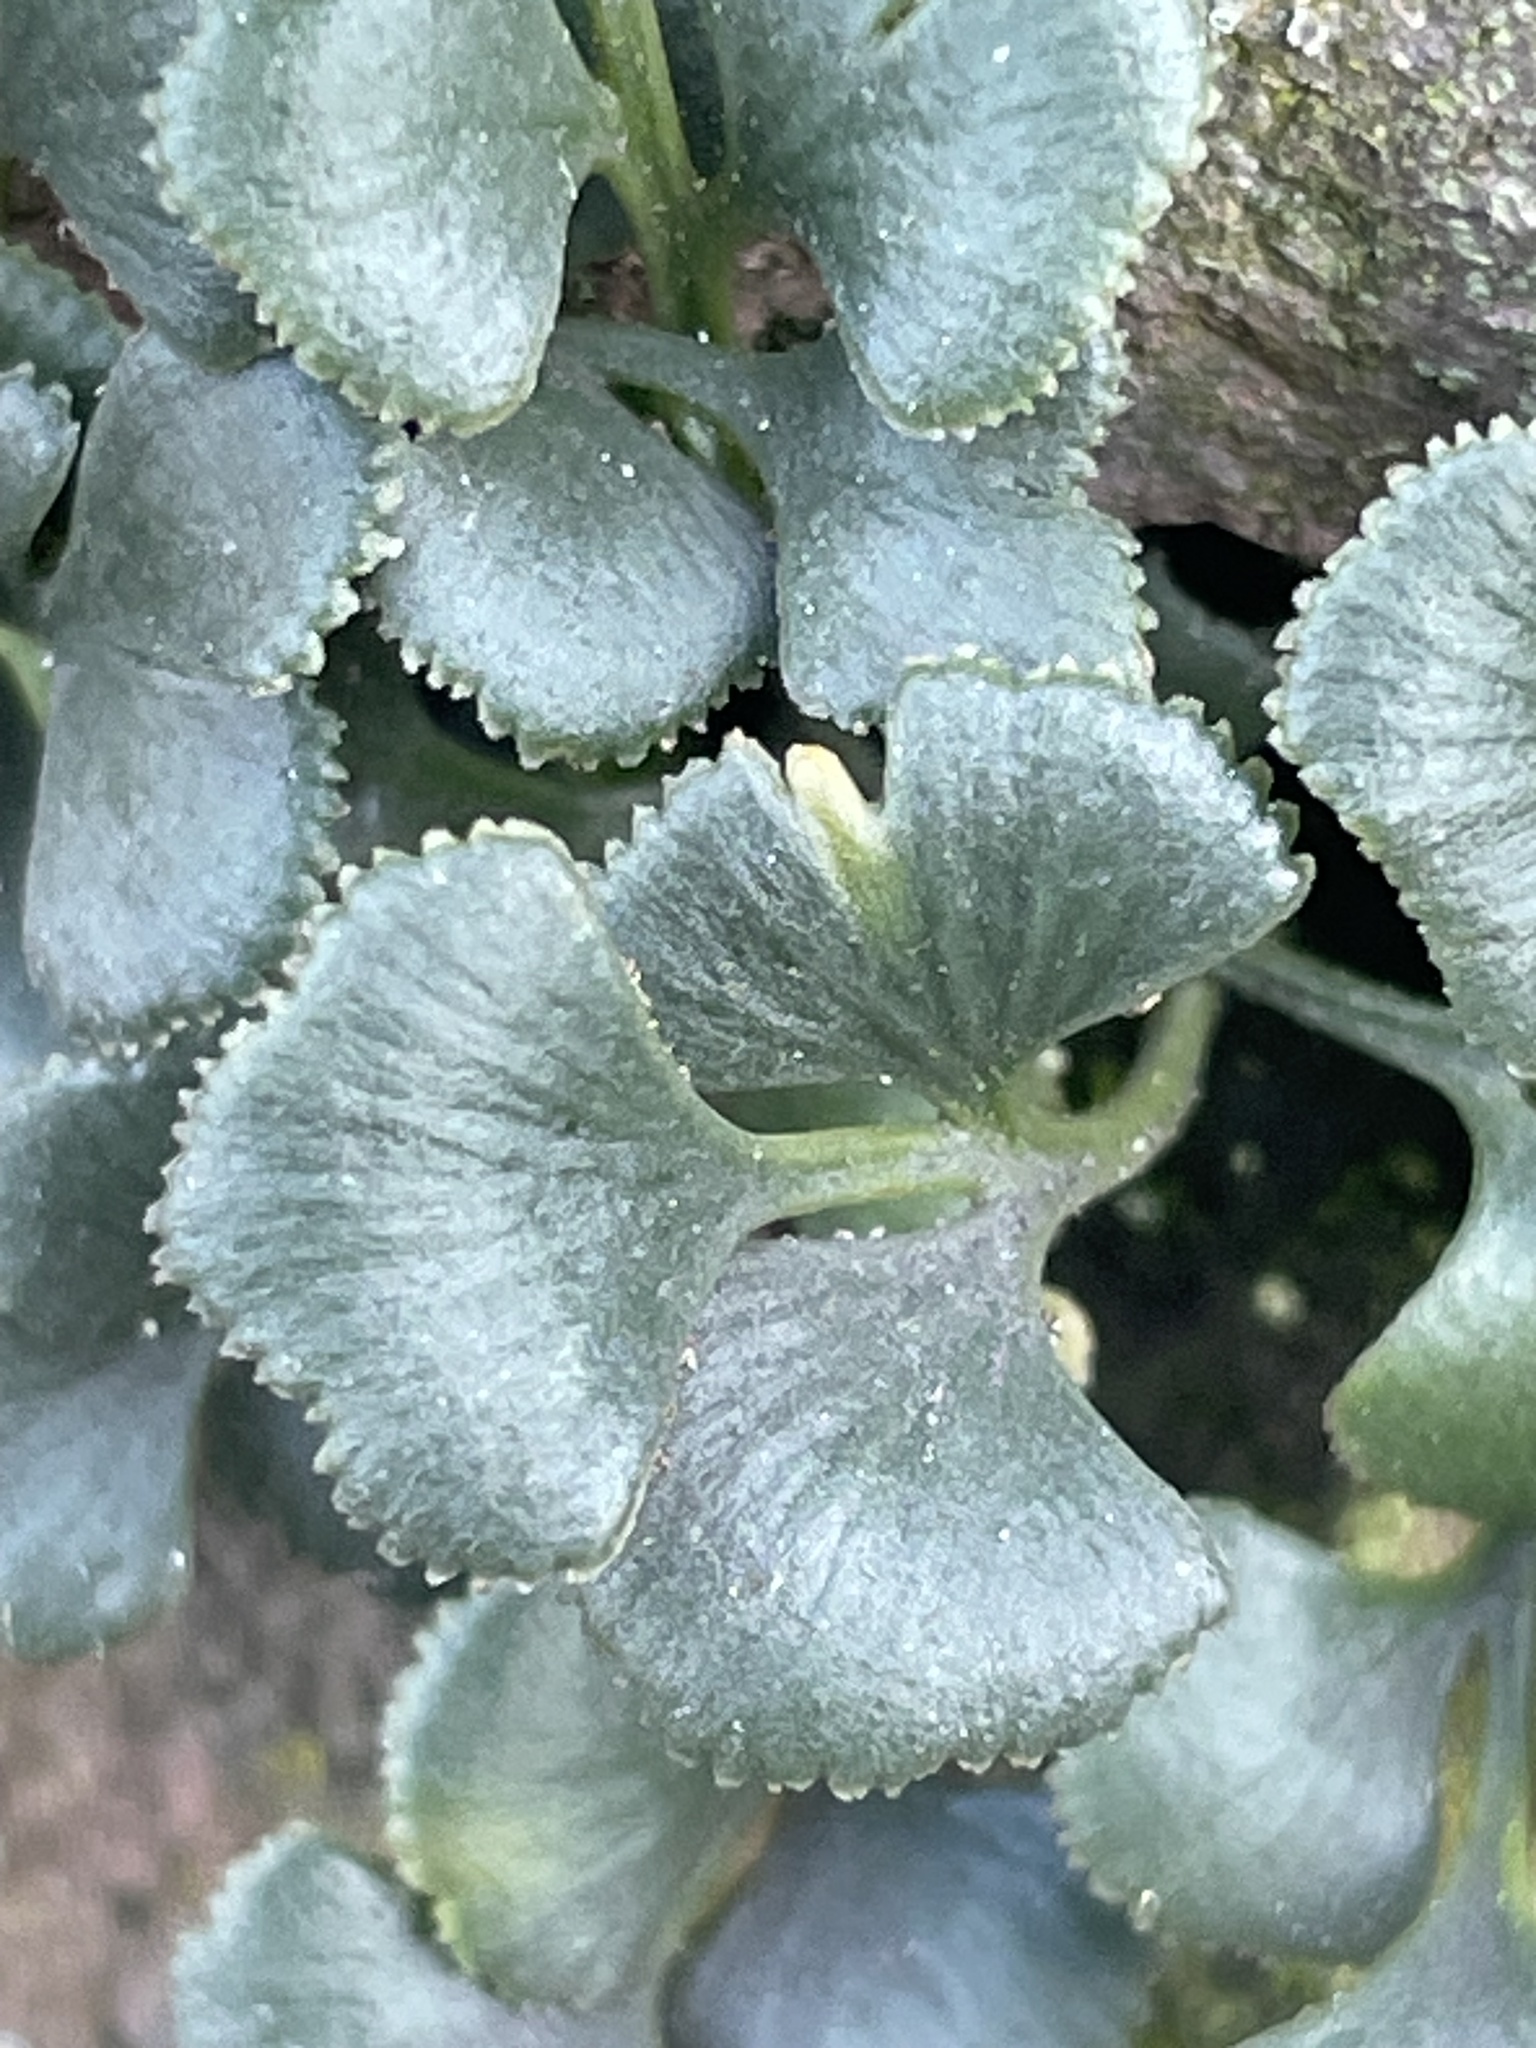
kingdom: Plantae
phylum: Tracheophyta
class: Polypodiopsida
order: Polypodiales
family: Aspleniaceae
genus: Asplenium
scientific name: Asplenium ruta-muraria
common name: Wall-rue
